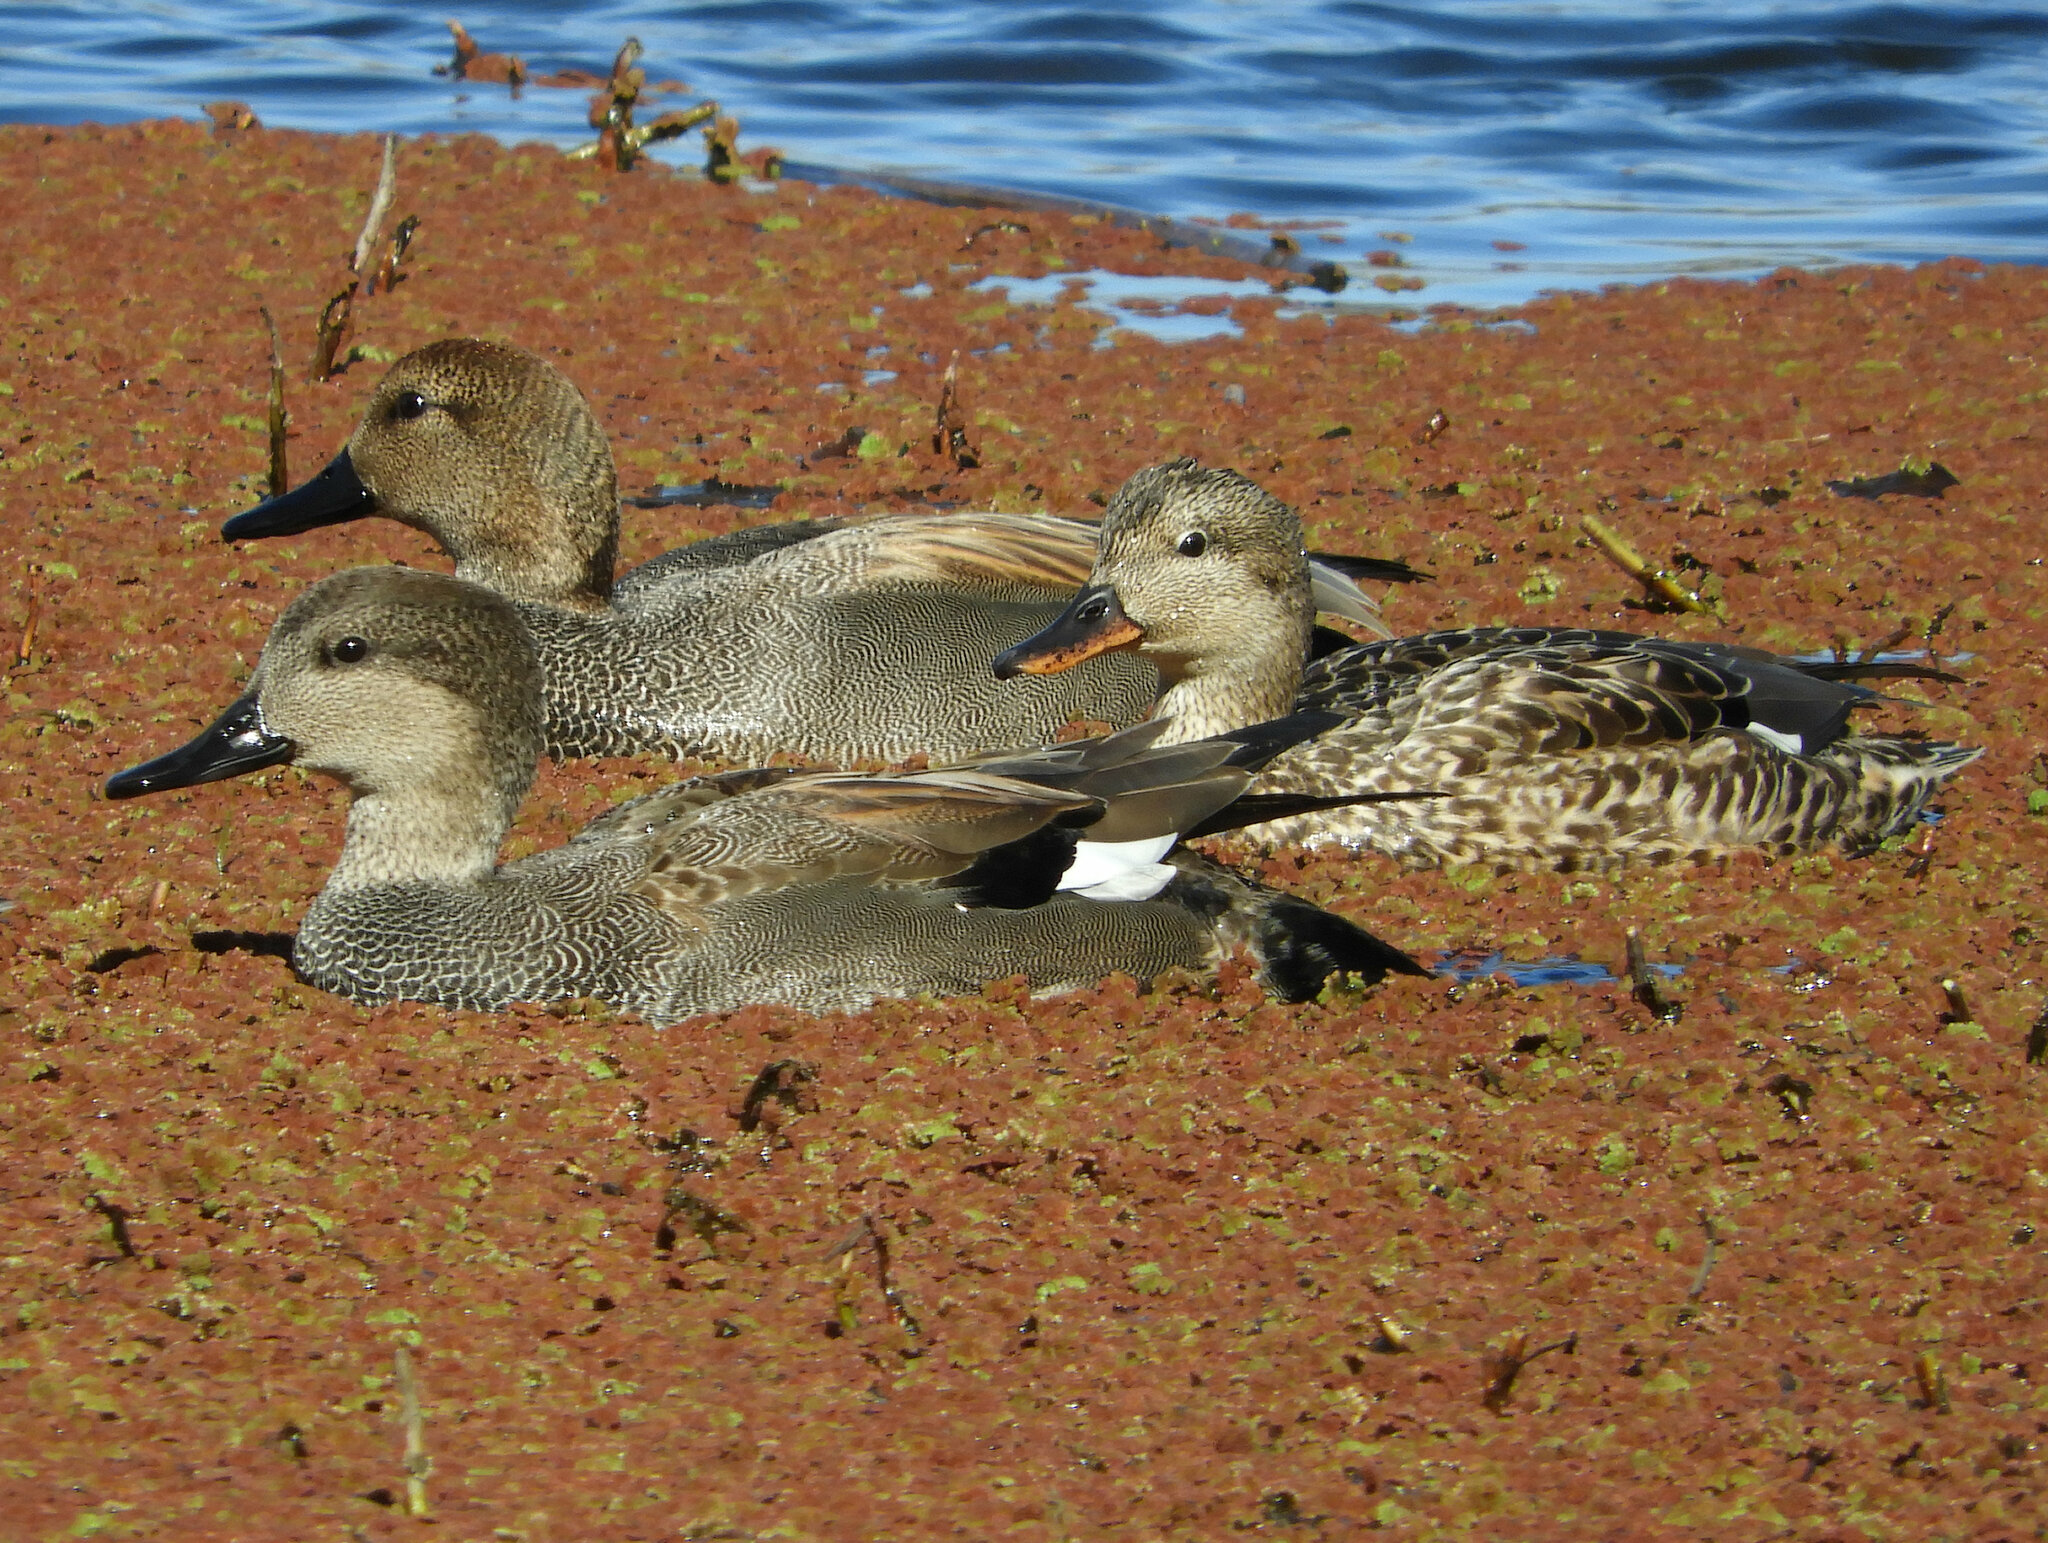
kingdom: Animalia
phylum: Chordata
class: Aves
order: Anseriformes
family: Anatidae
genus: Mareca
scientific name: Mareca strepera
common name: Gadwall
